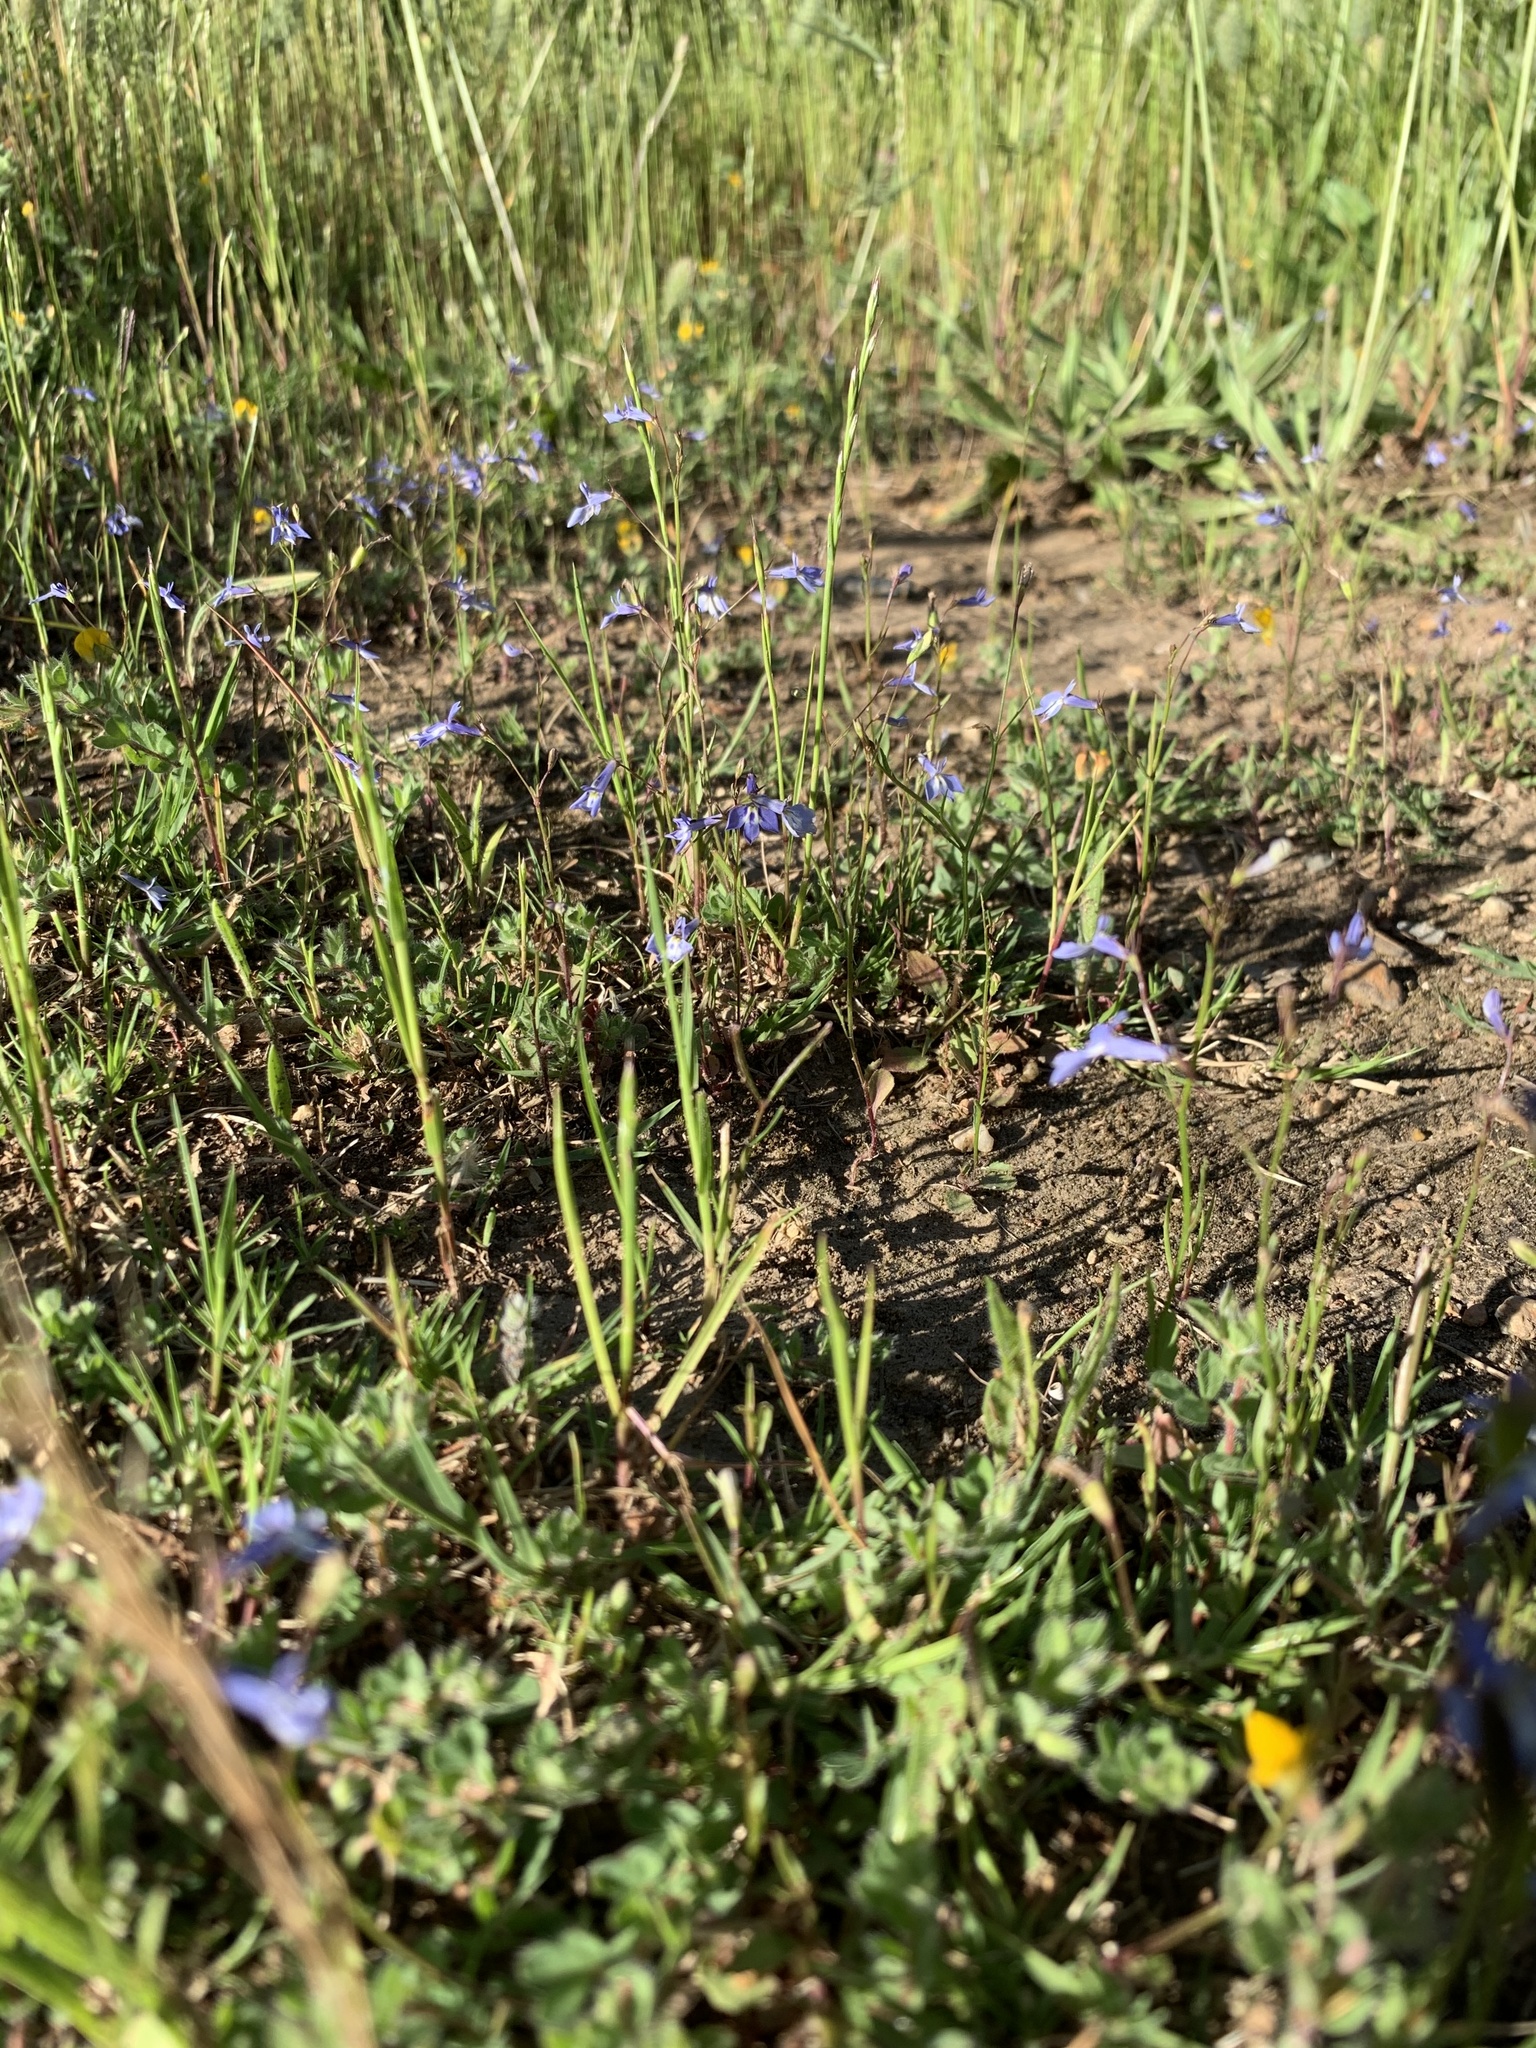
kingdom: Plantae
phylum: Tracheophyta
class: Magnoliopsida
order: Asterales
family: Campanulaceae
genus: Lobelia
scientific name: Lobelia erinus
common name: Edging lobelia
